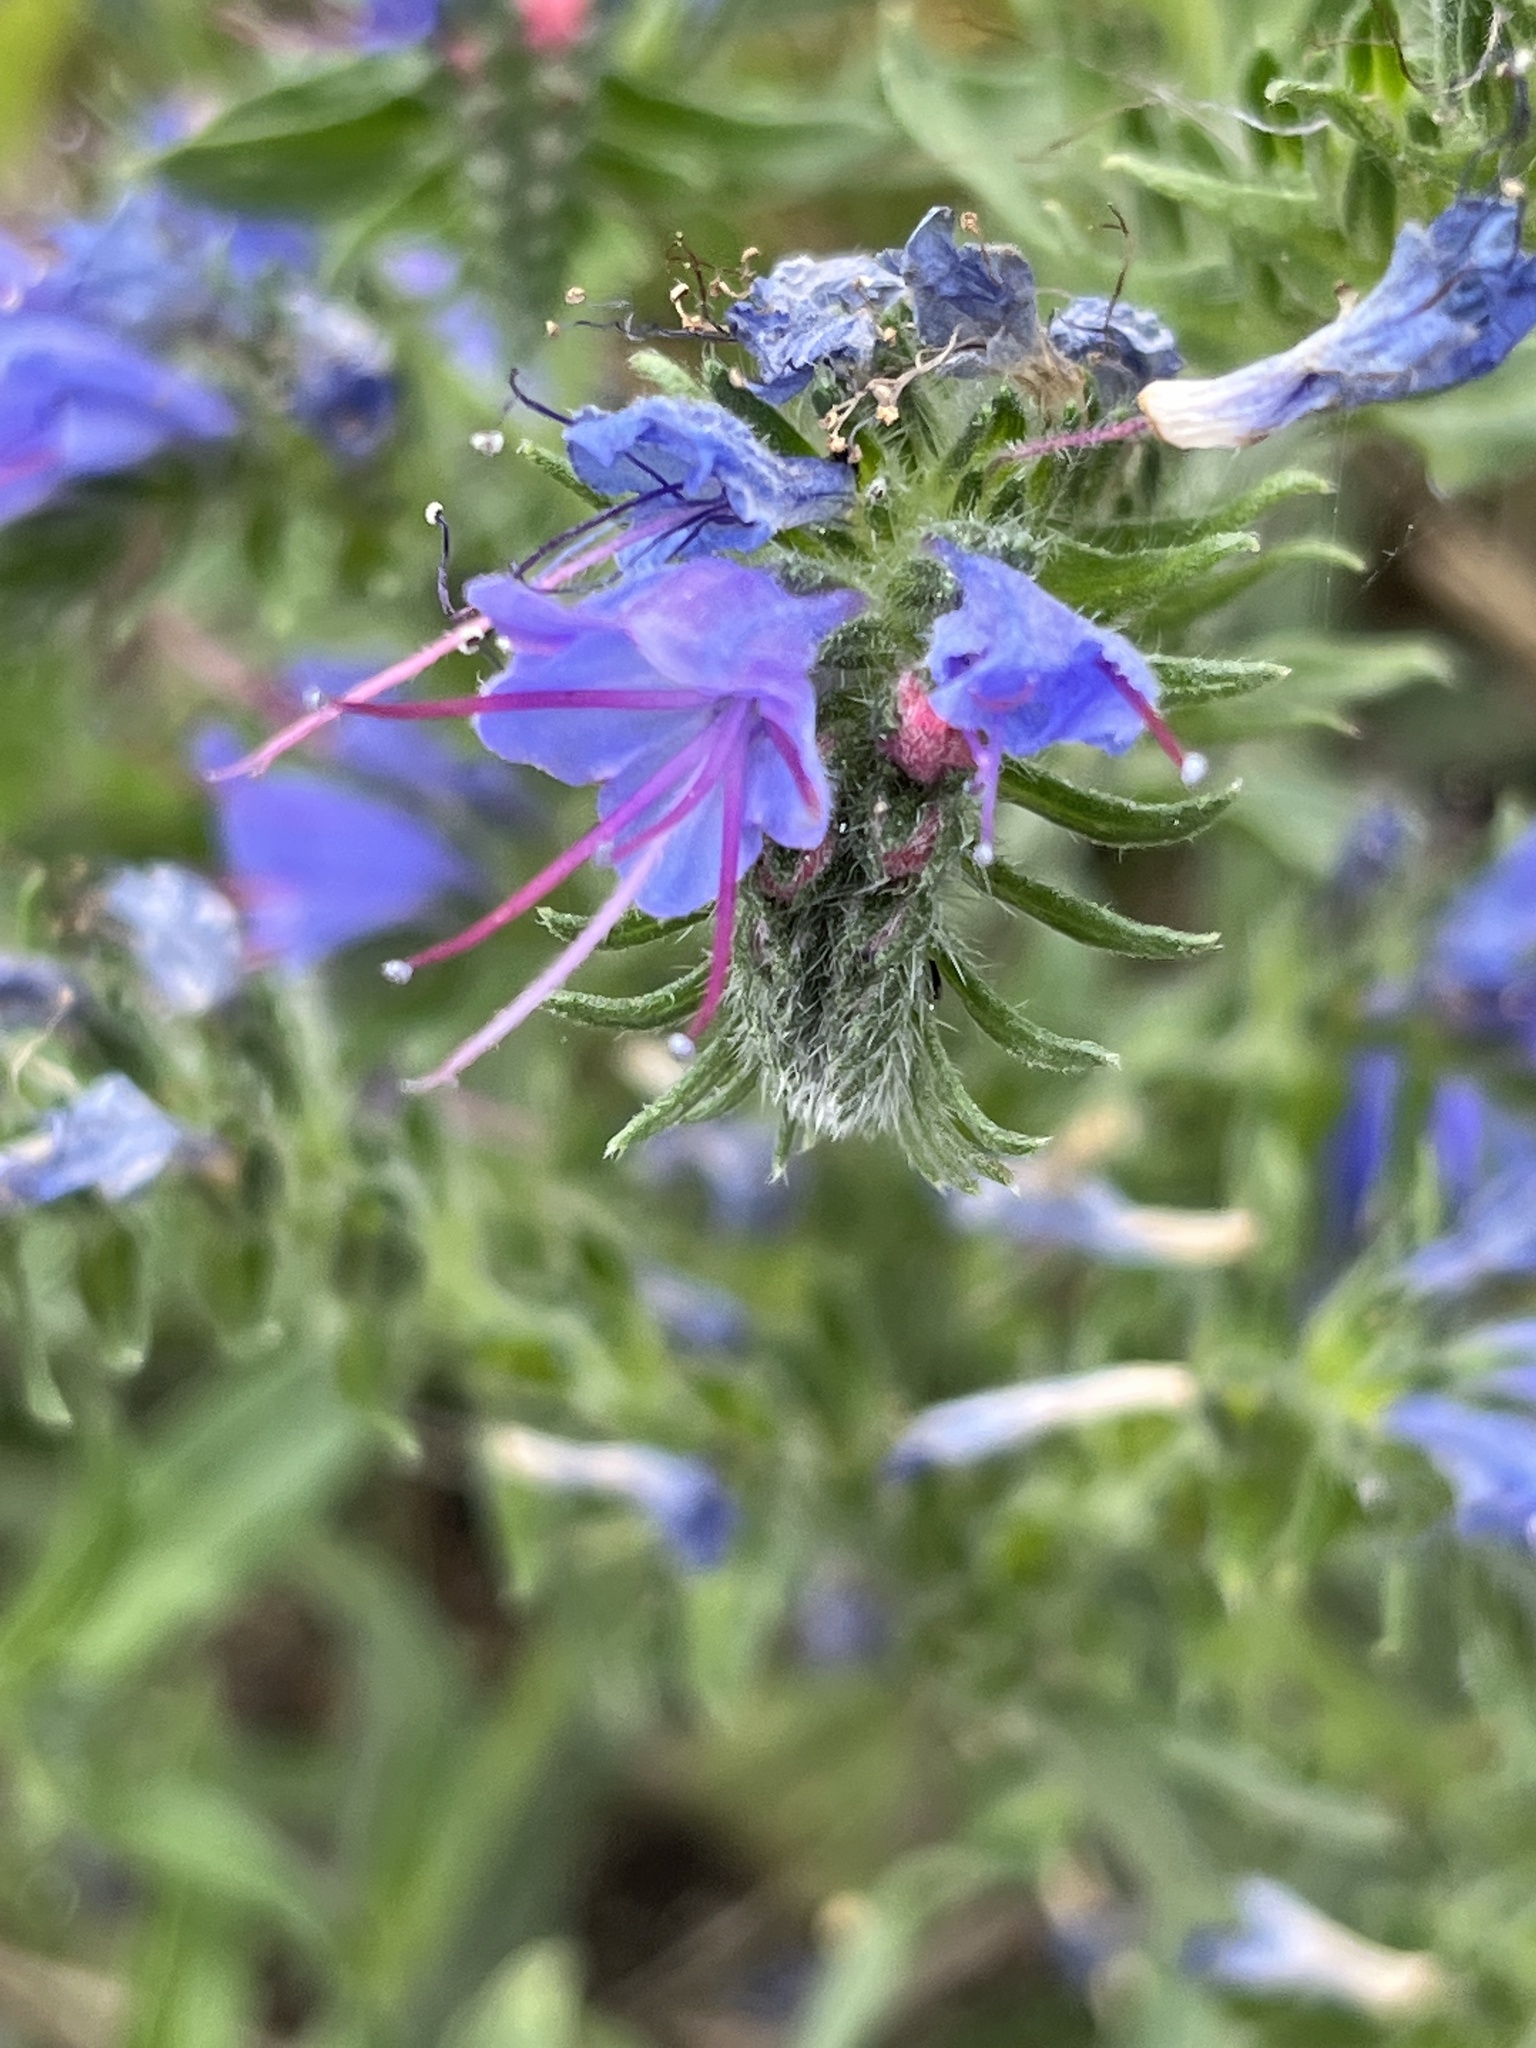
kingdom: Plantae
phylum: Tracheophyta
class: Magnoliopsida
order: Boraginales
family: Boraginaceae
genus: Echium
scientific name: Echium vulgare
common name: Common viper's bugloss
